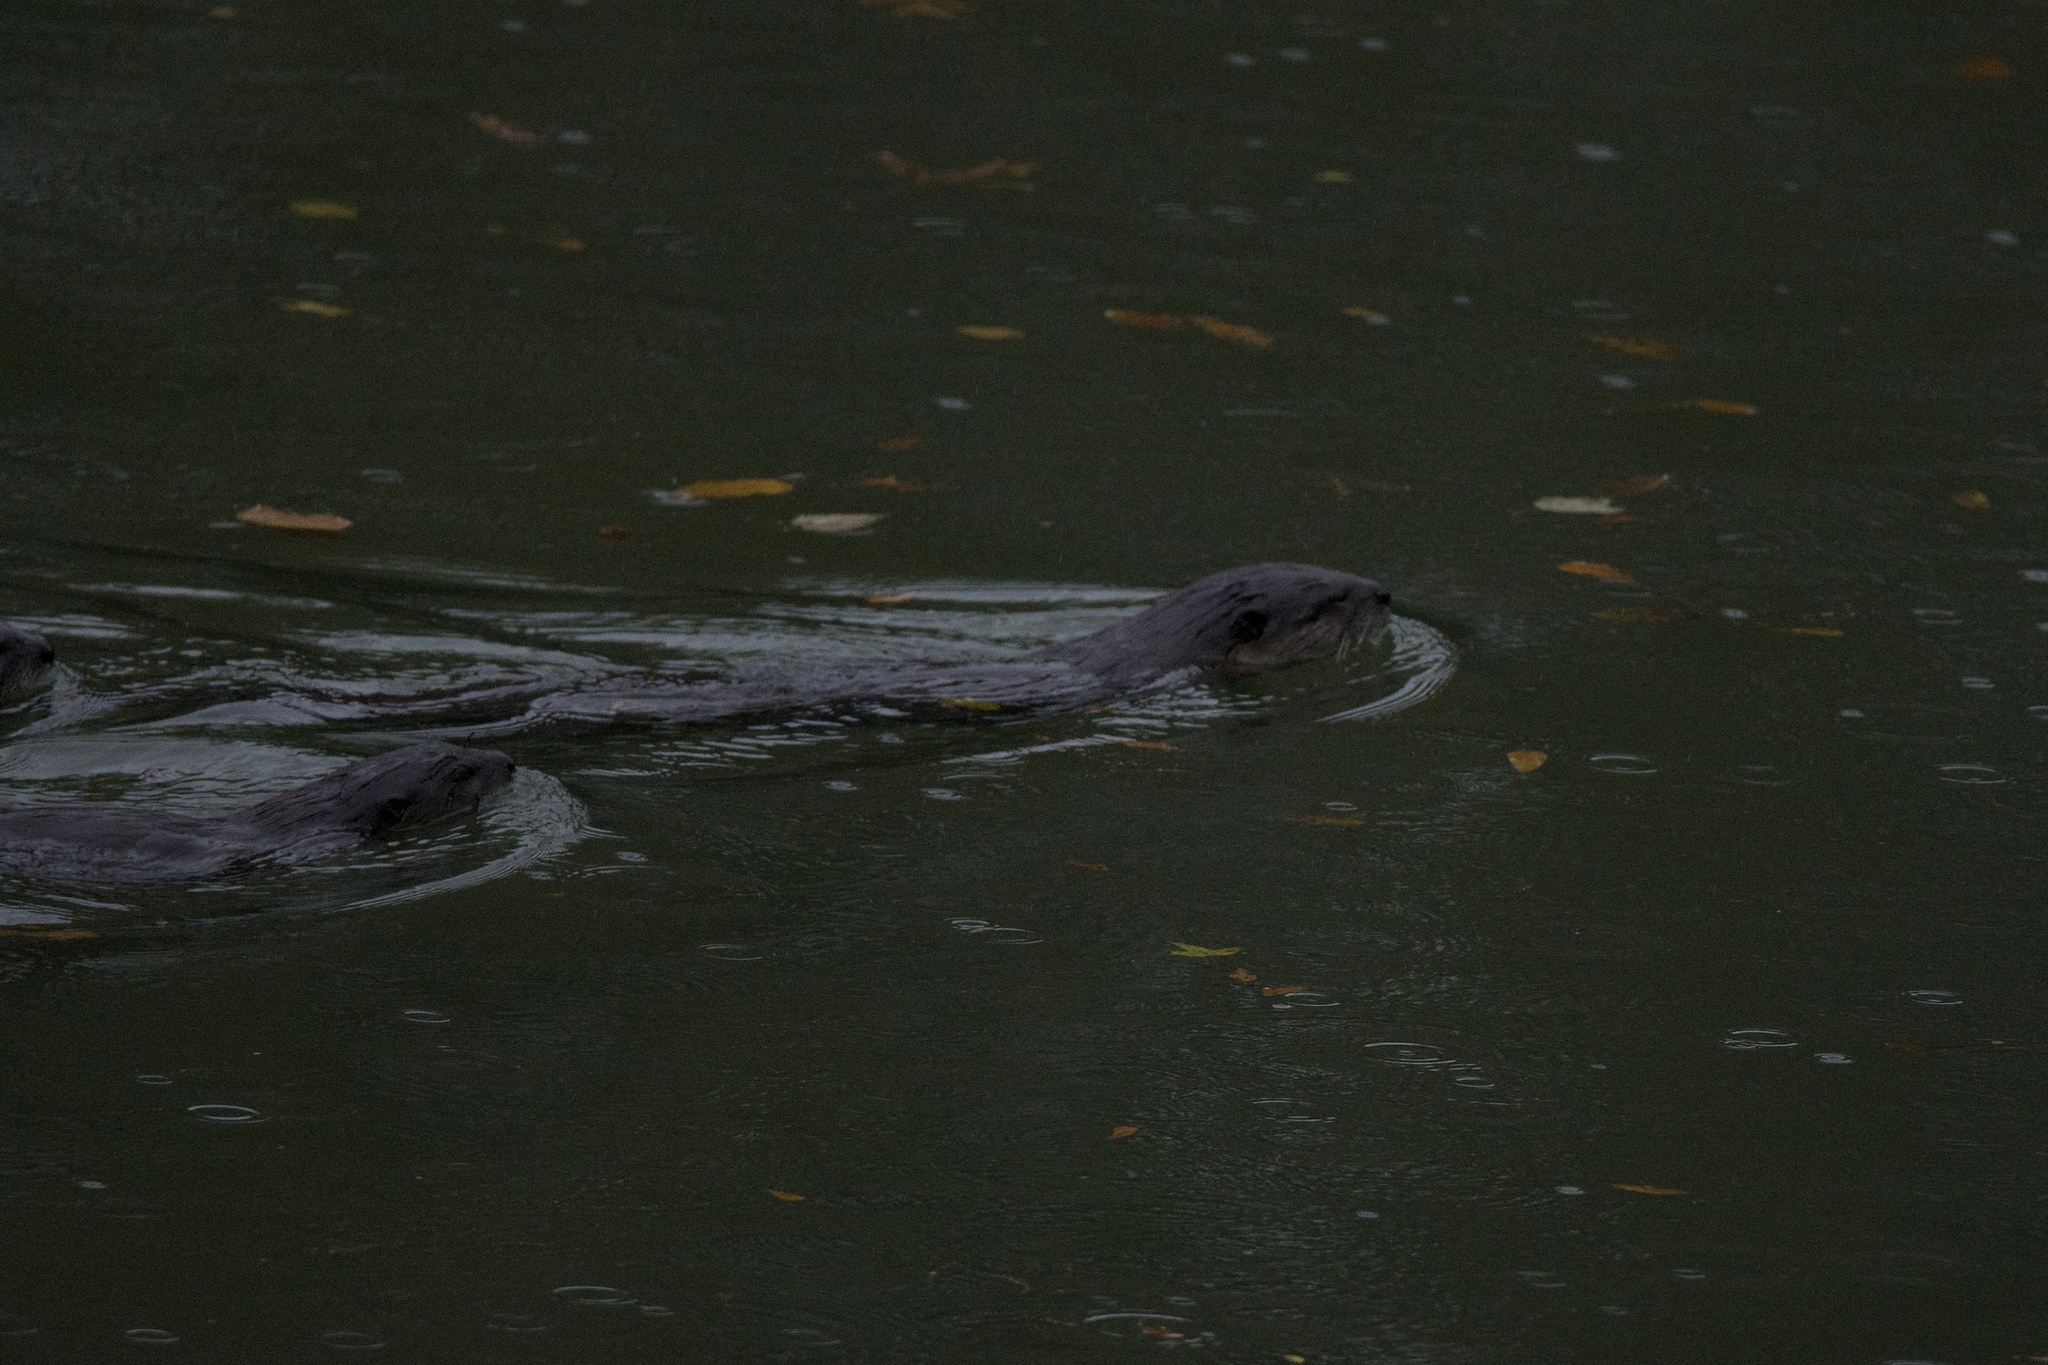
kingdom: Animalia
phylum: Chordata
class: Mammalia
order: Carnivora
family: Mustelidae
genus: Lontra
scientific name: Lontra canadensis
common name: North american river otter
